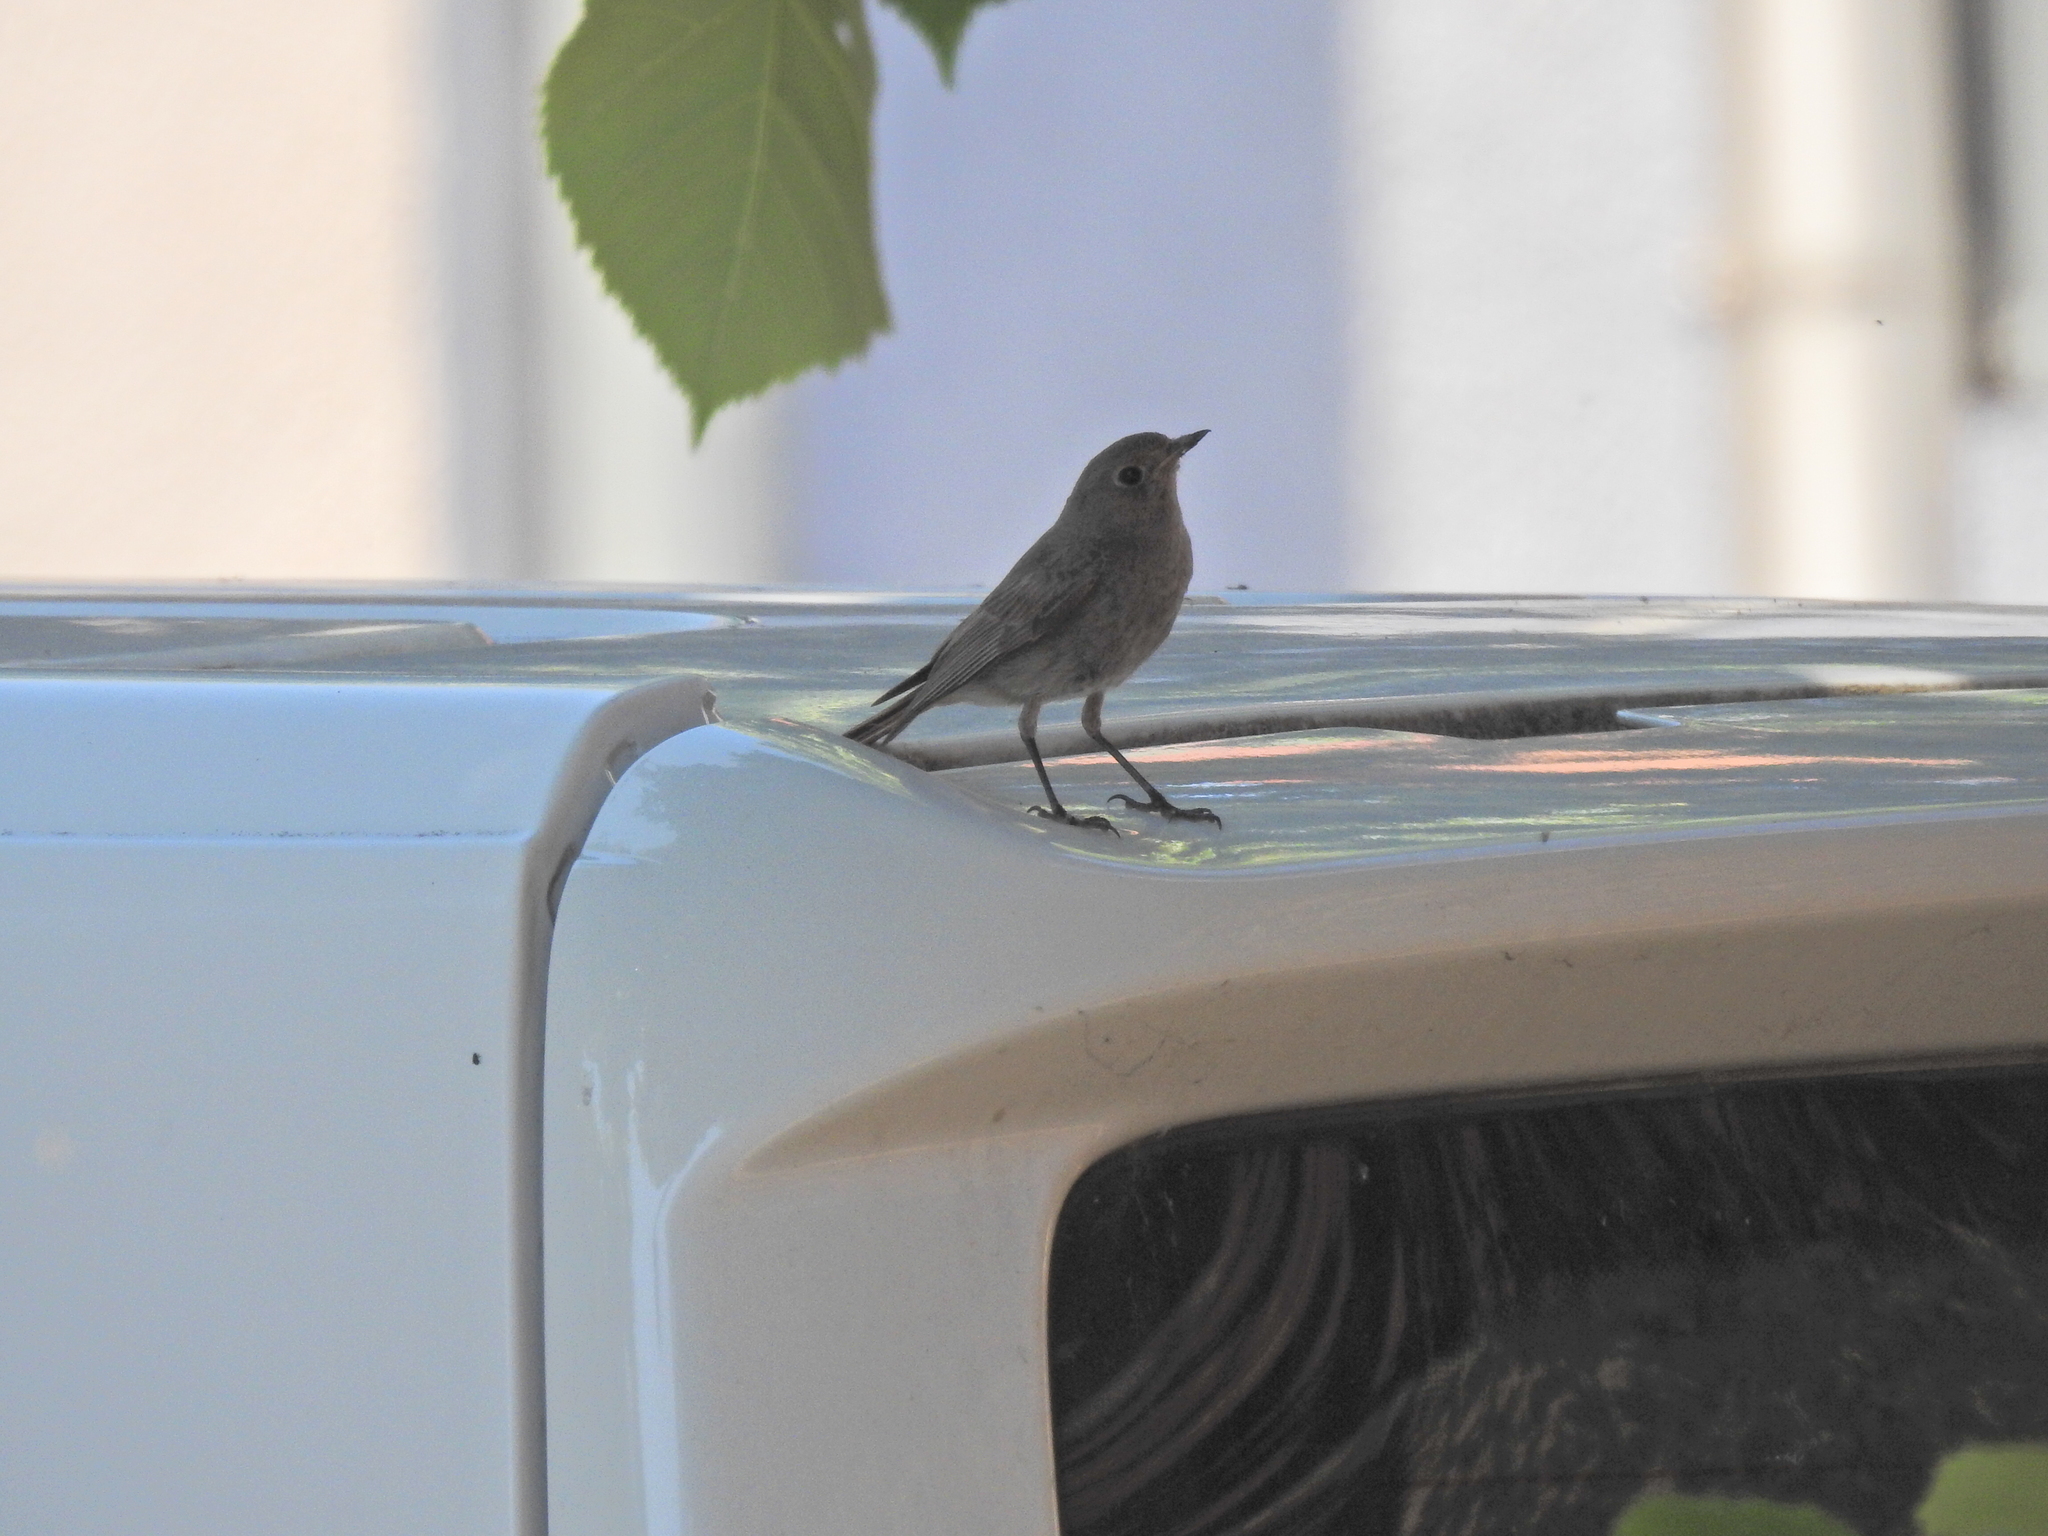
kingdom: Animalia
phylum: Chordata
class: Aves
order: Passeriformes
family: Muscicapidae
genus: Phoenicurus
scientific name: Phoenicurus ochruros
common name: Black redstart
